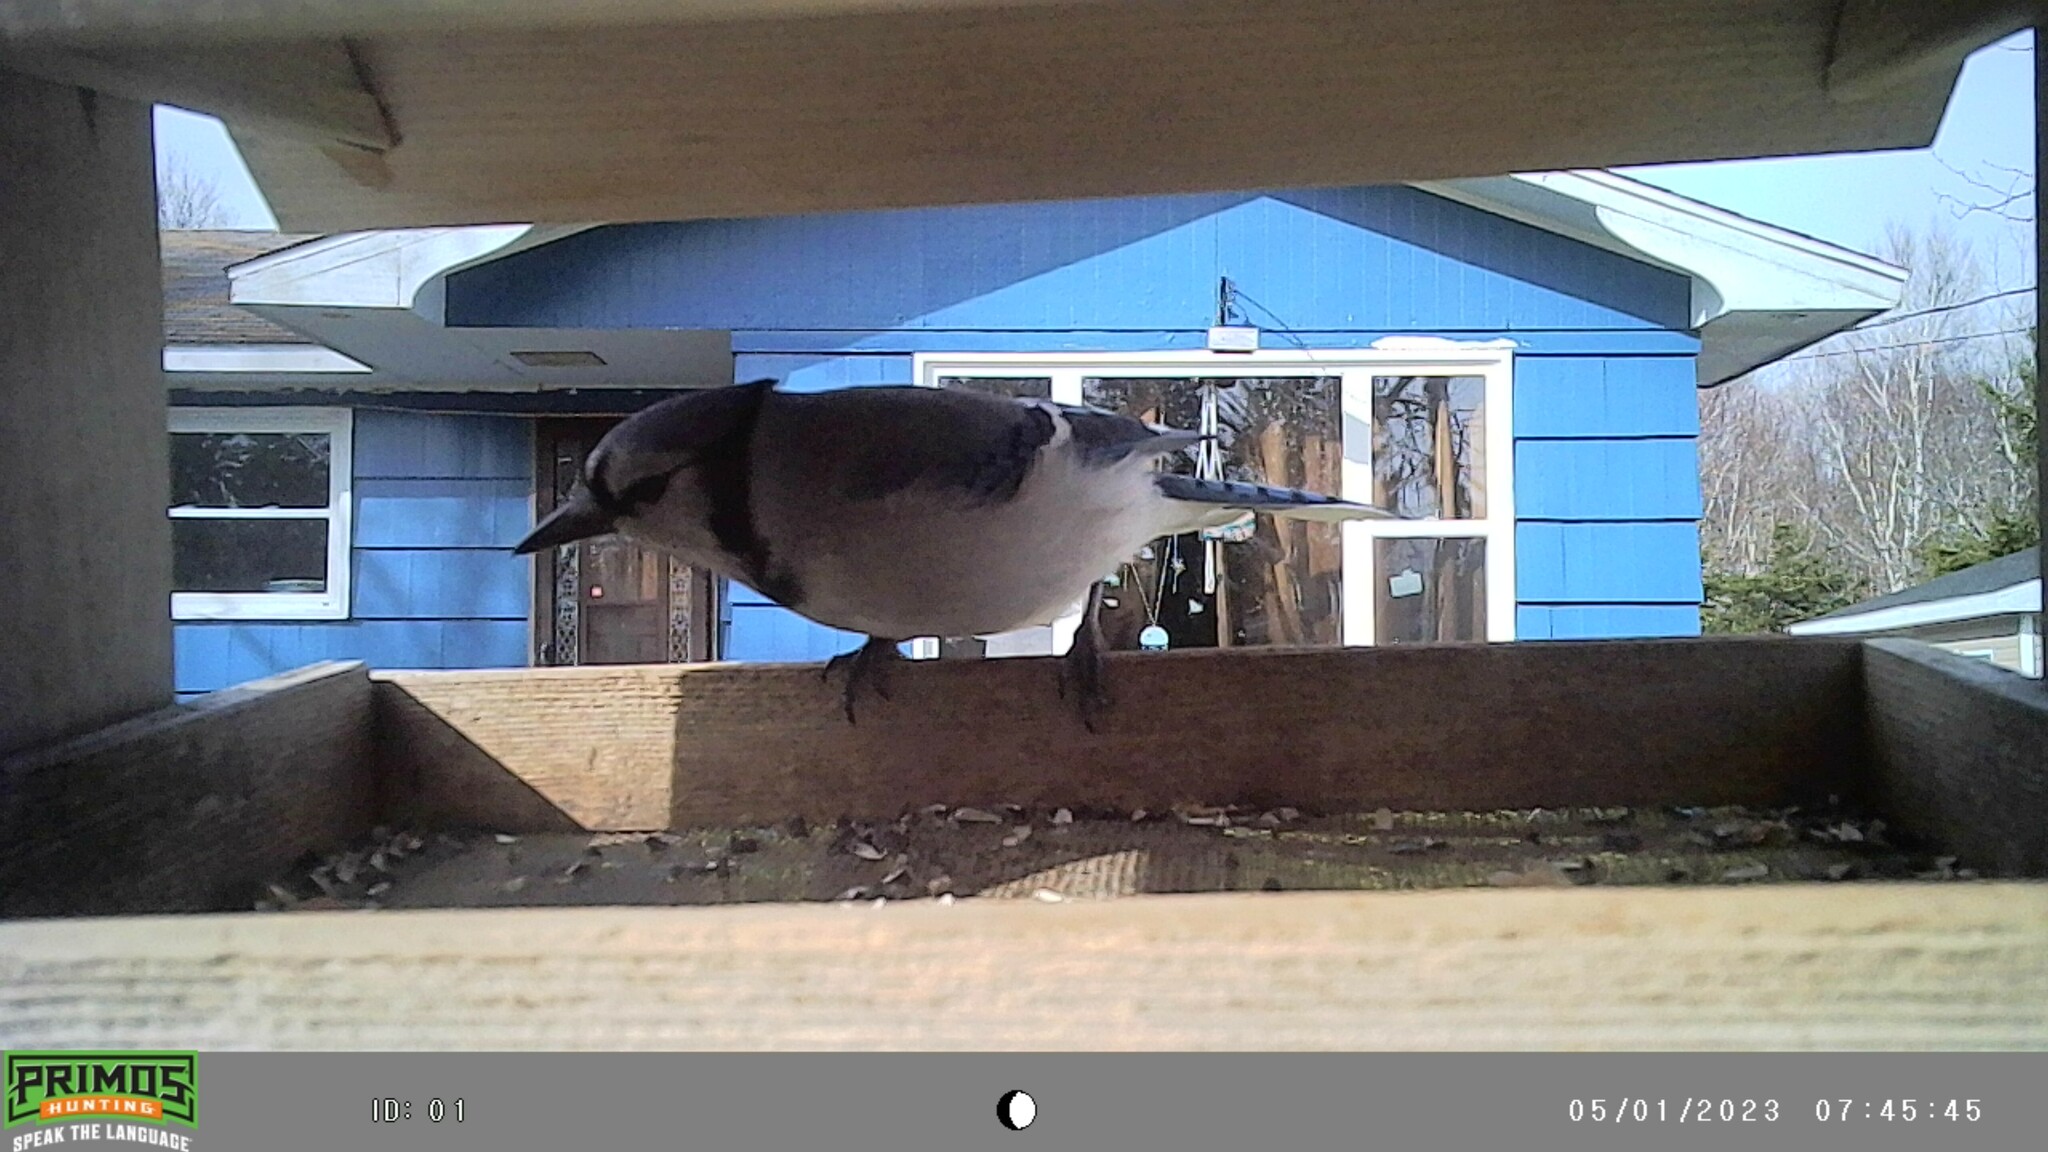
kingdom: Animalia
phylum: Chordata
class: Aves
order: Passeriformes
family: Corvidae
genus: Cyanocitta
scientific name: Cyanocitta cristata
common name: Blue jay
